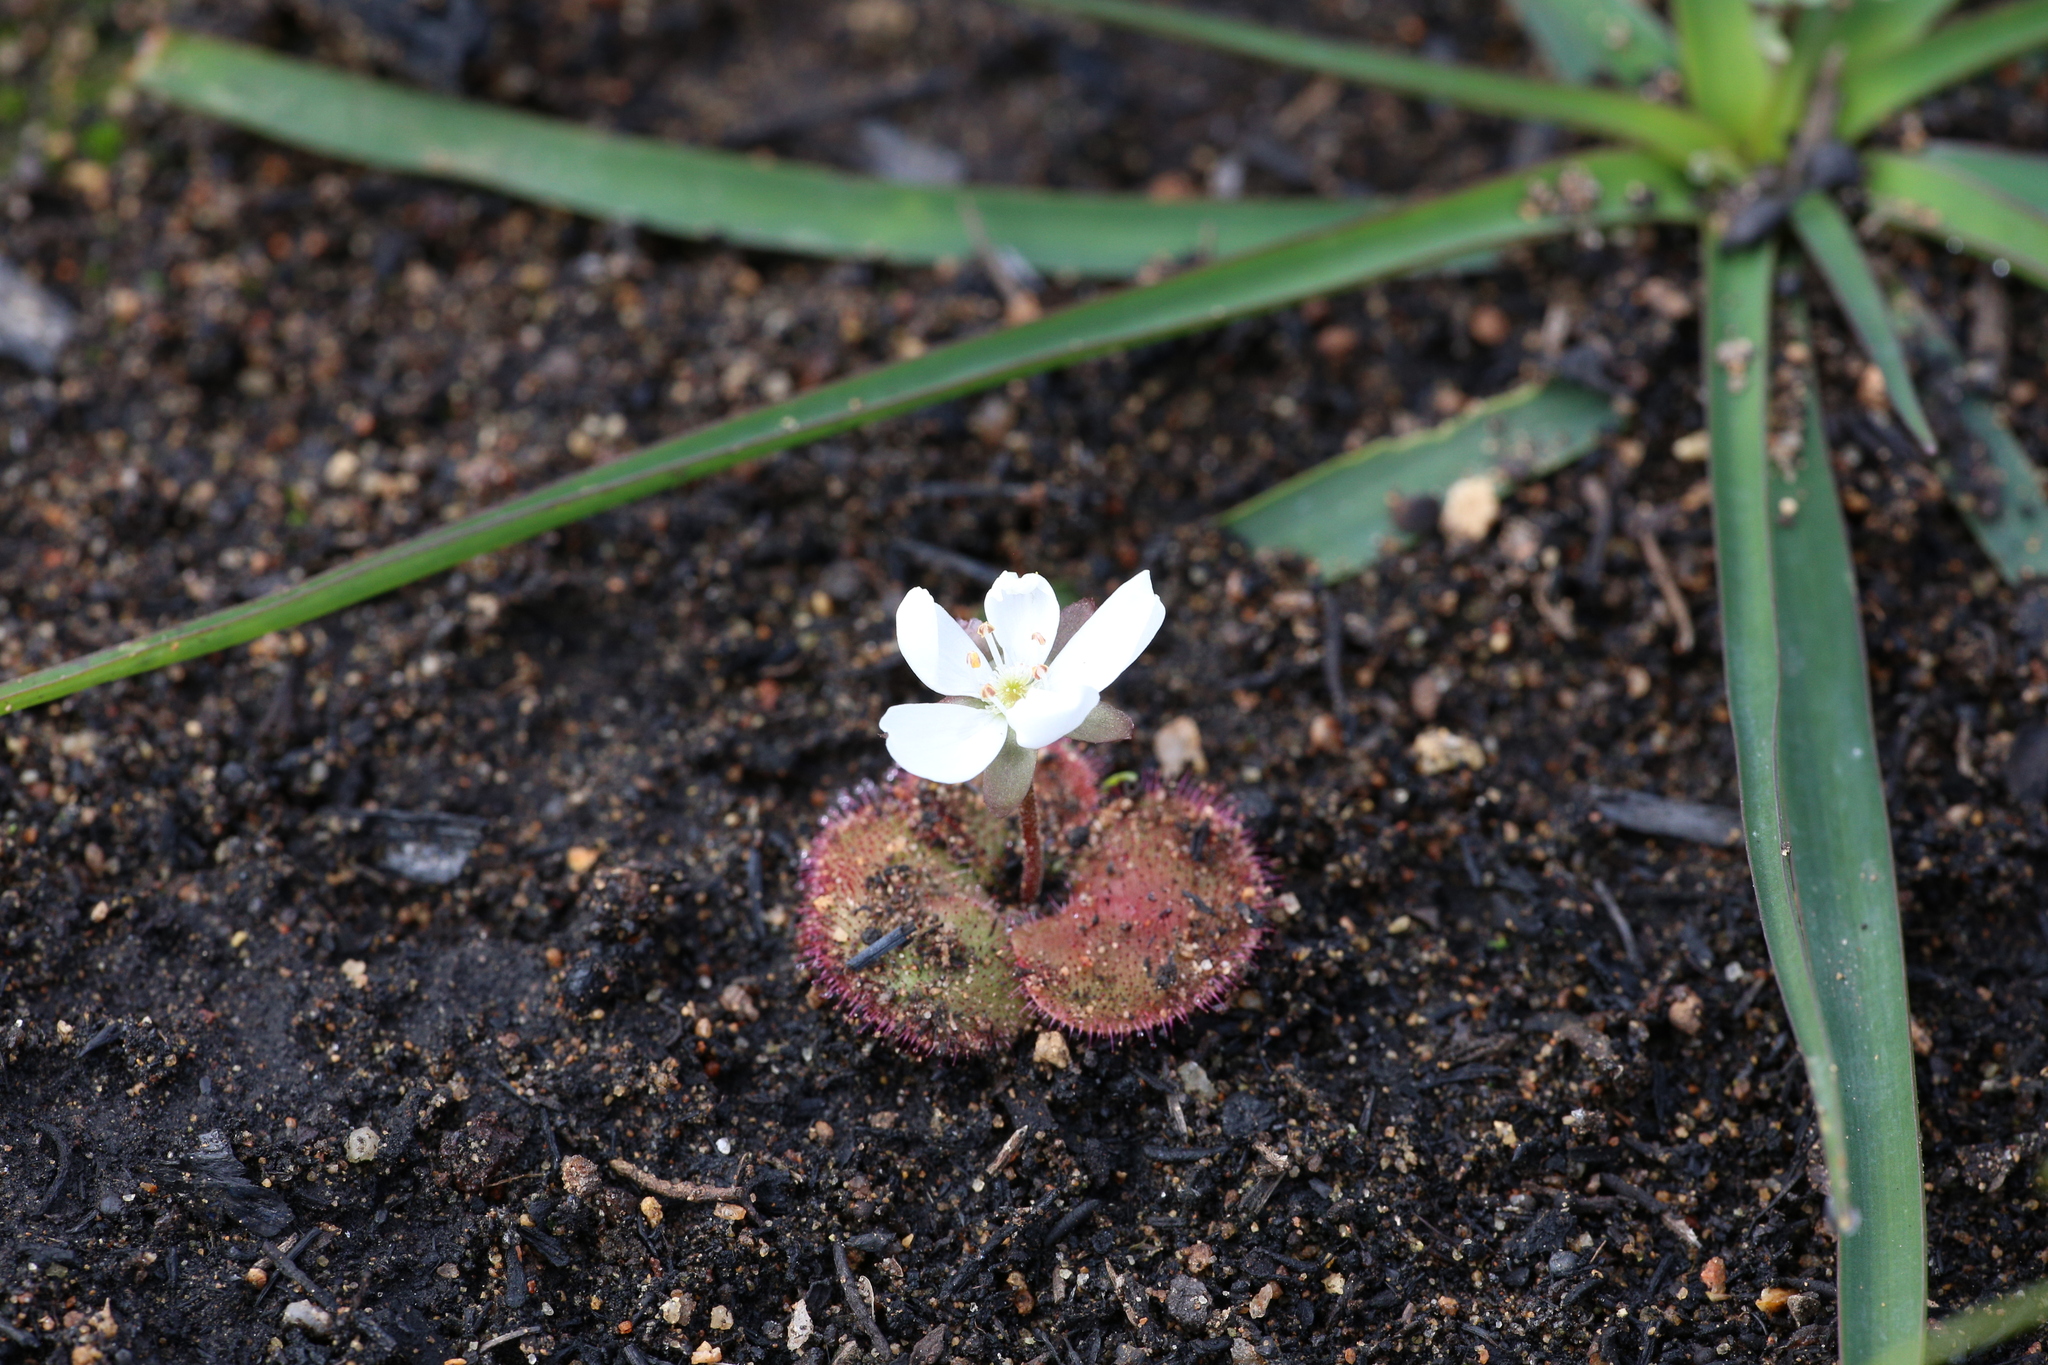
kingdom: Plantae
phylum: Tracheophyta
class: Magnoliopsida
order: Caryophyllales
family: Droseraceae
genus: Drosera
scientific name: Drosera erythrorhiza
